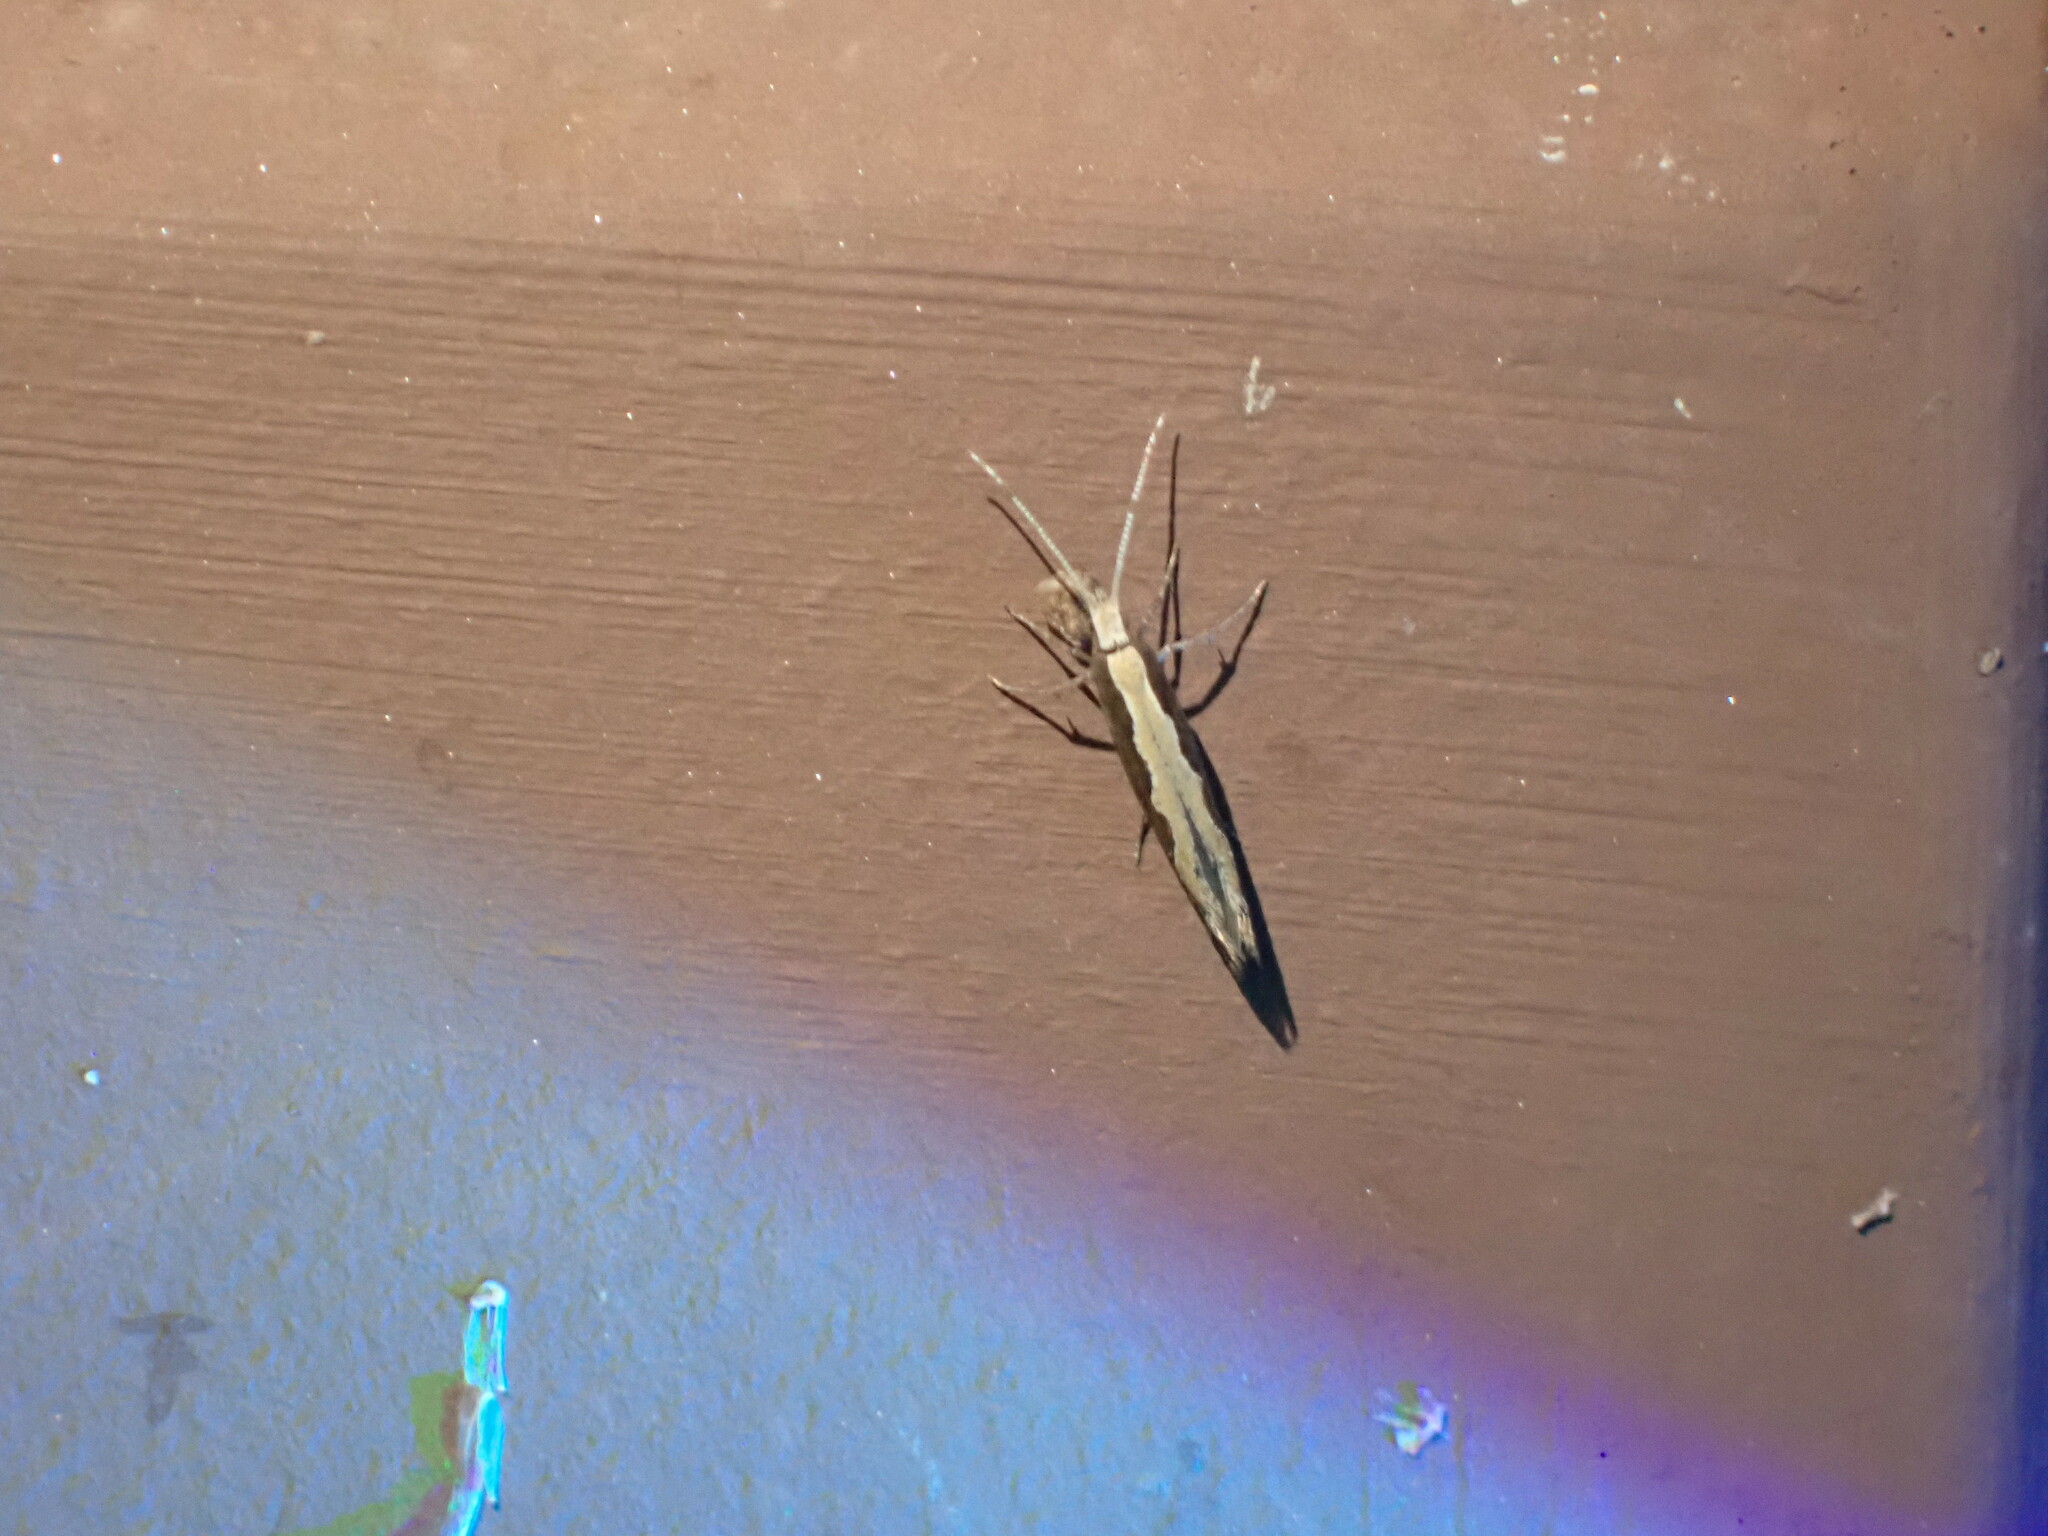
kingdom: Animalia
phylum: Arthropoda
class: Insecta
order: Lepidoptera
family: Plutellidae
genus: Plutella
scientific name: Plutella xylostella
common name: Diamond-back moth
